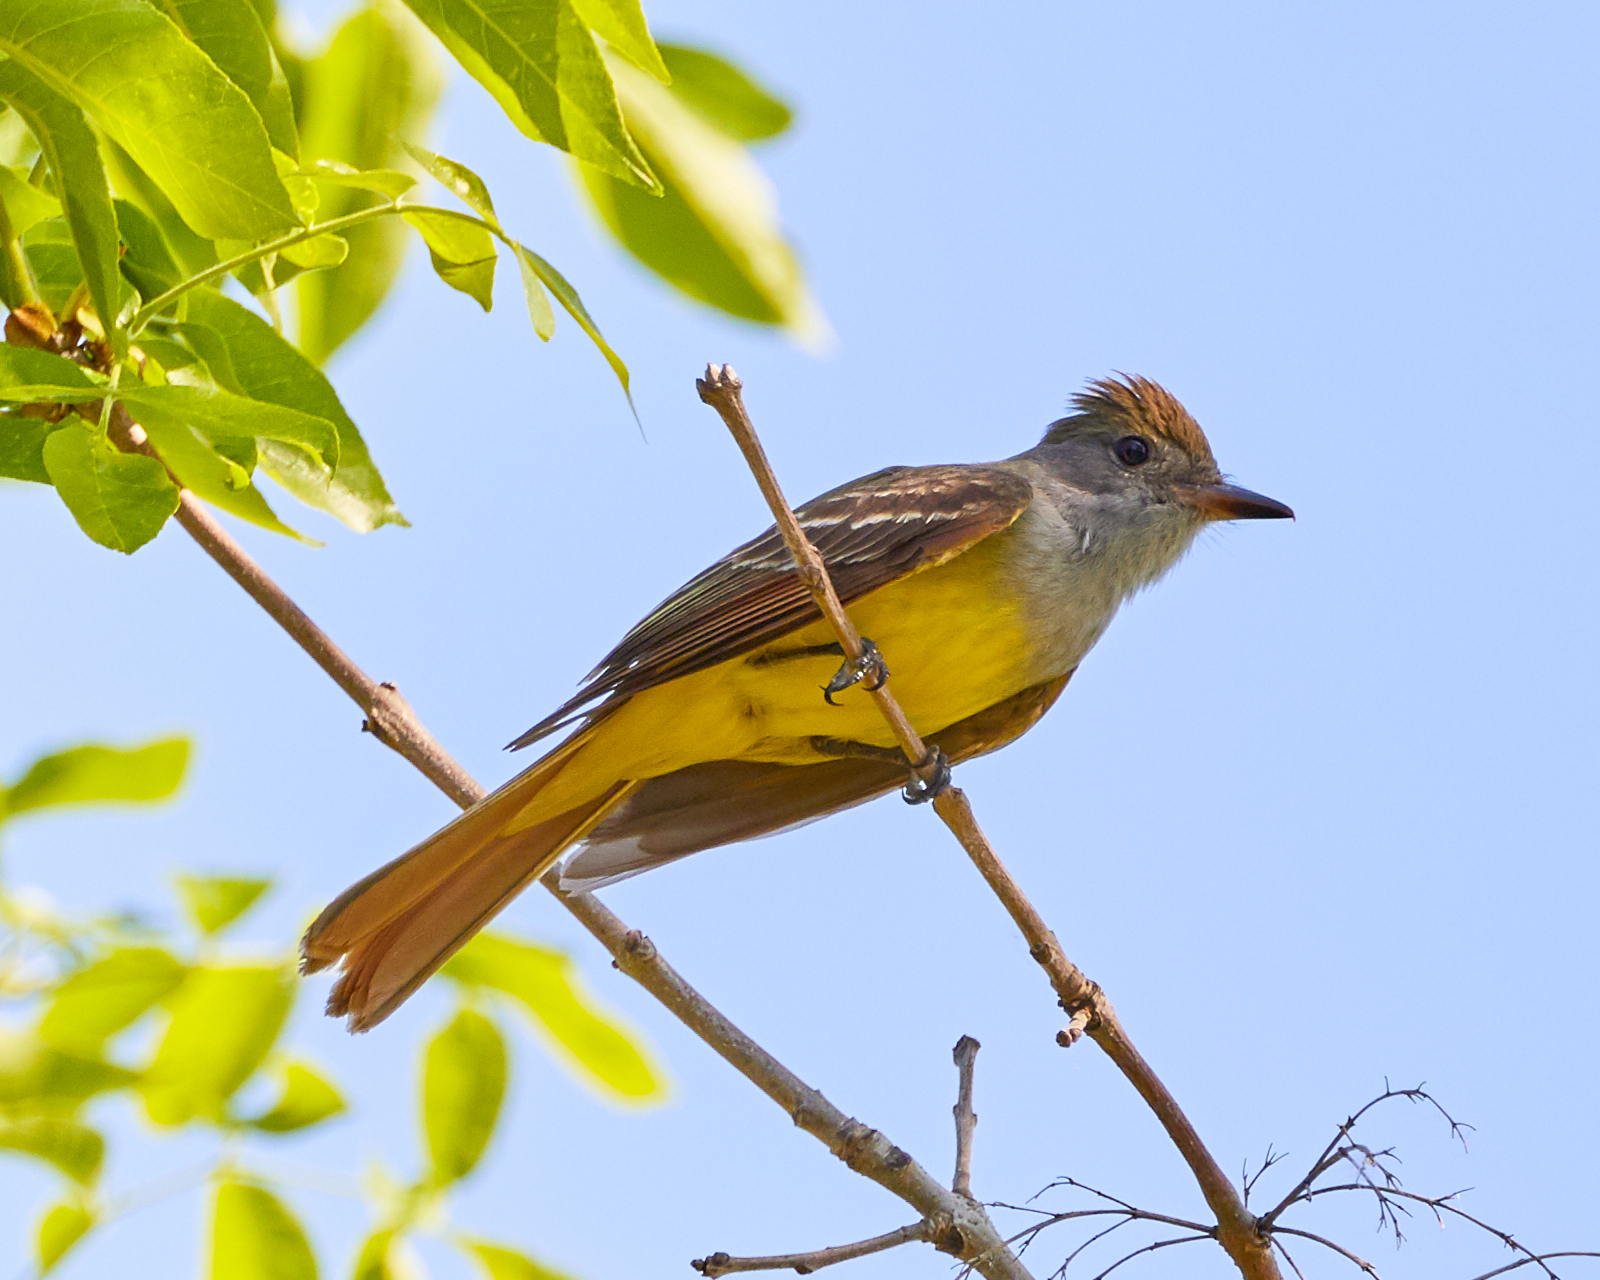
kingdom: Animalia
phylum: Chordata
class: Aves
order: Passeriformes
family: Tyrannidae
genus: Myiarchus
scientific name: Myiarchus crinitus
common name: Great crested flycatcher
